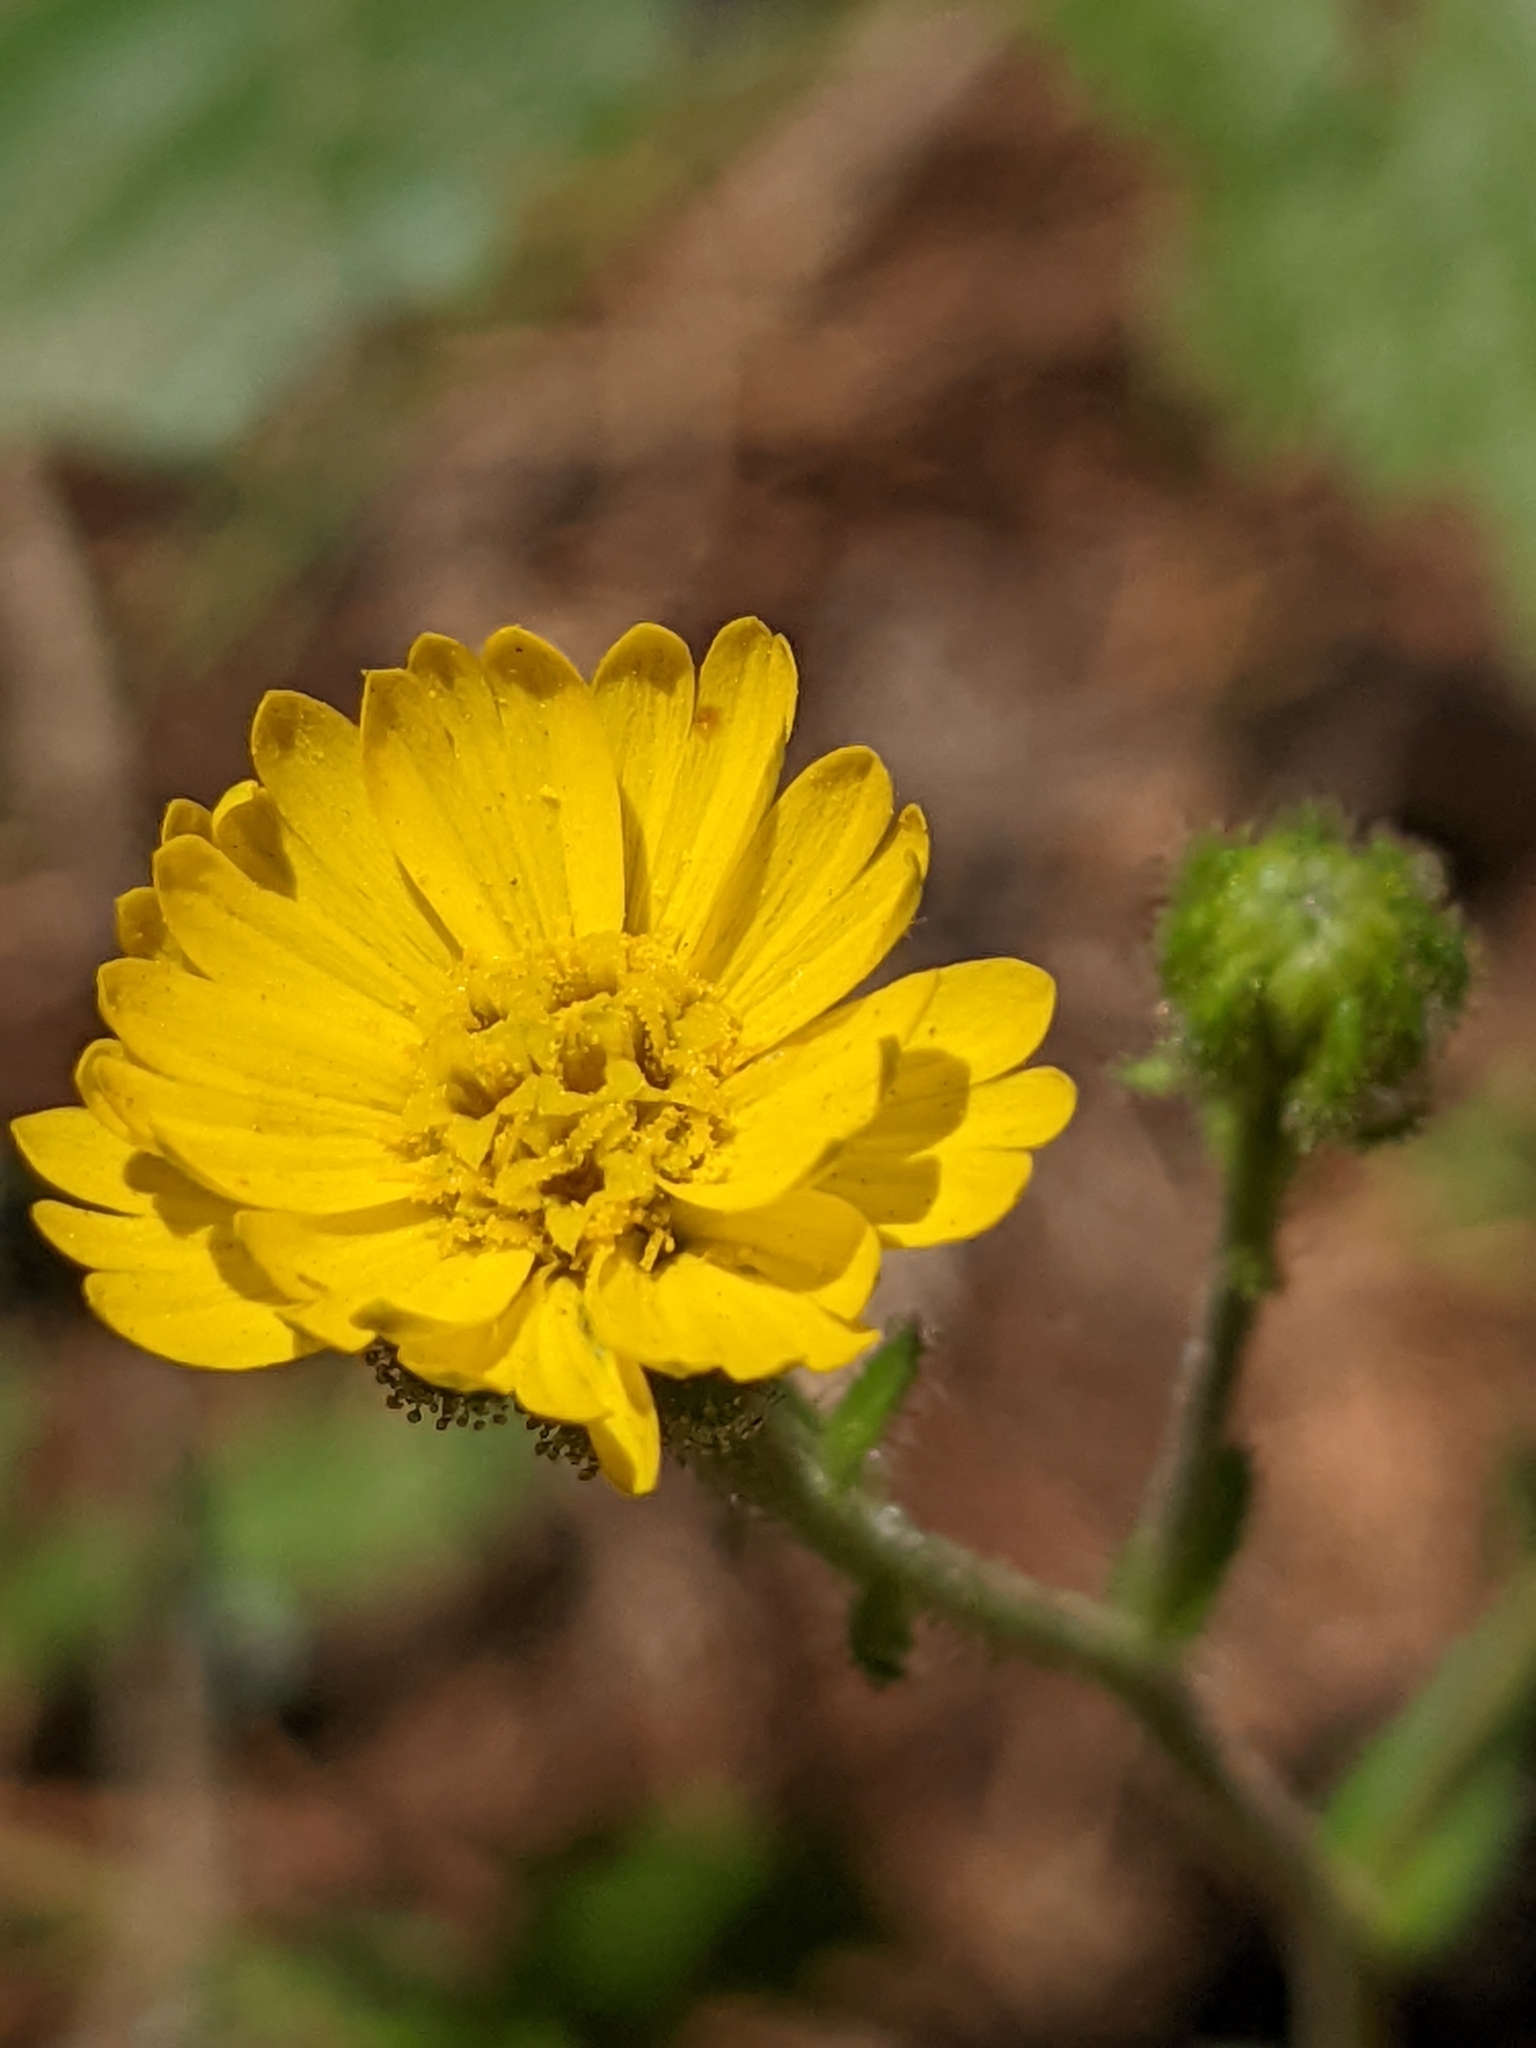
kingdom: Plantae
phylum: Tracheophyta
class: Magnoliopsida
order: Asterales
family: Asteraceae
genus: Anisocarpus
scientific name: Anisocarpus madioides
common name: Woodland madia
